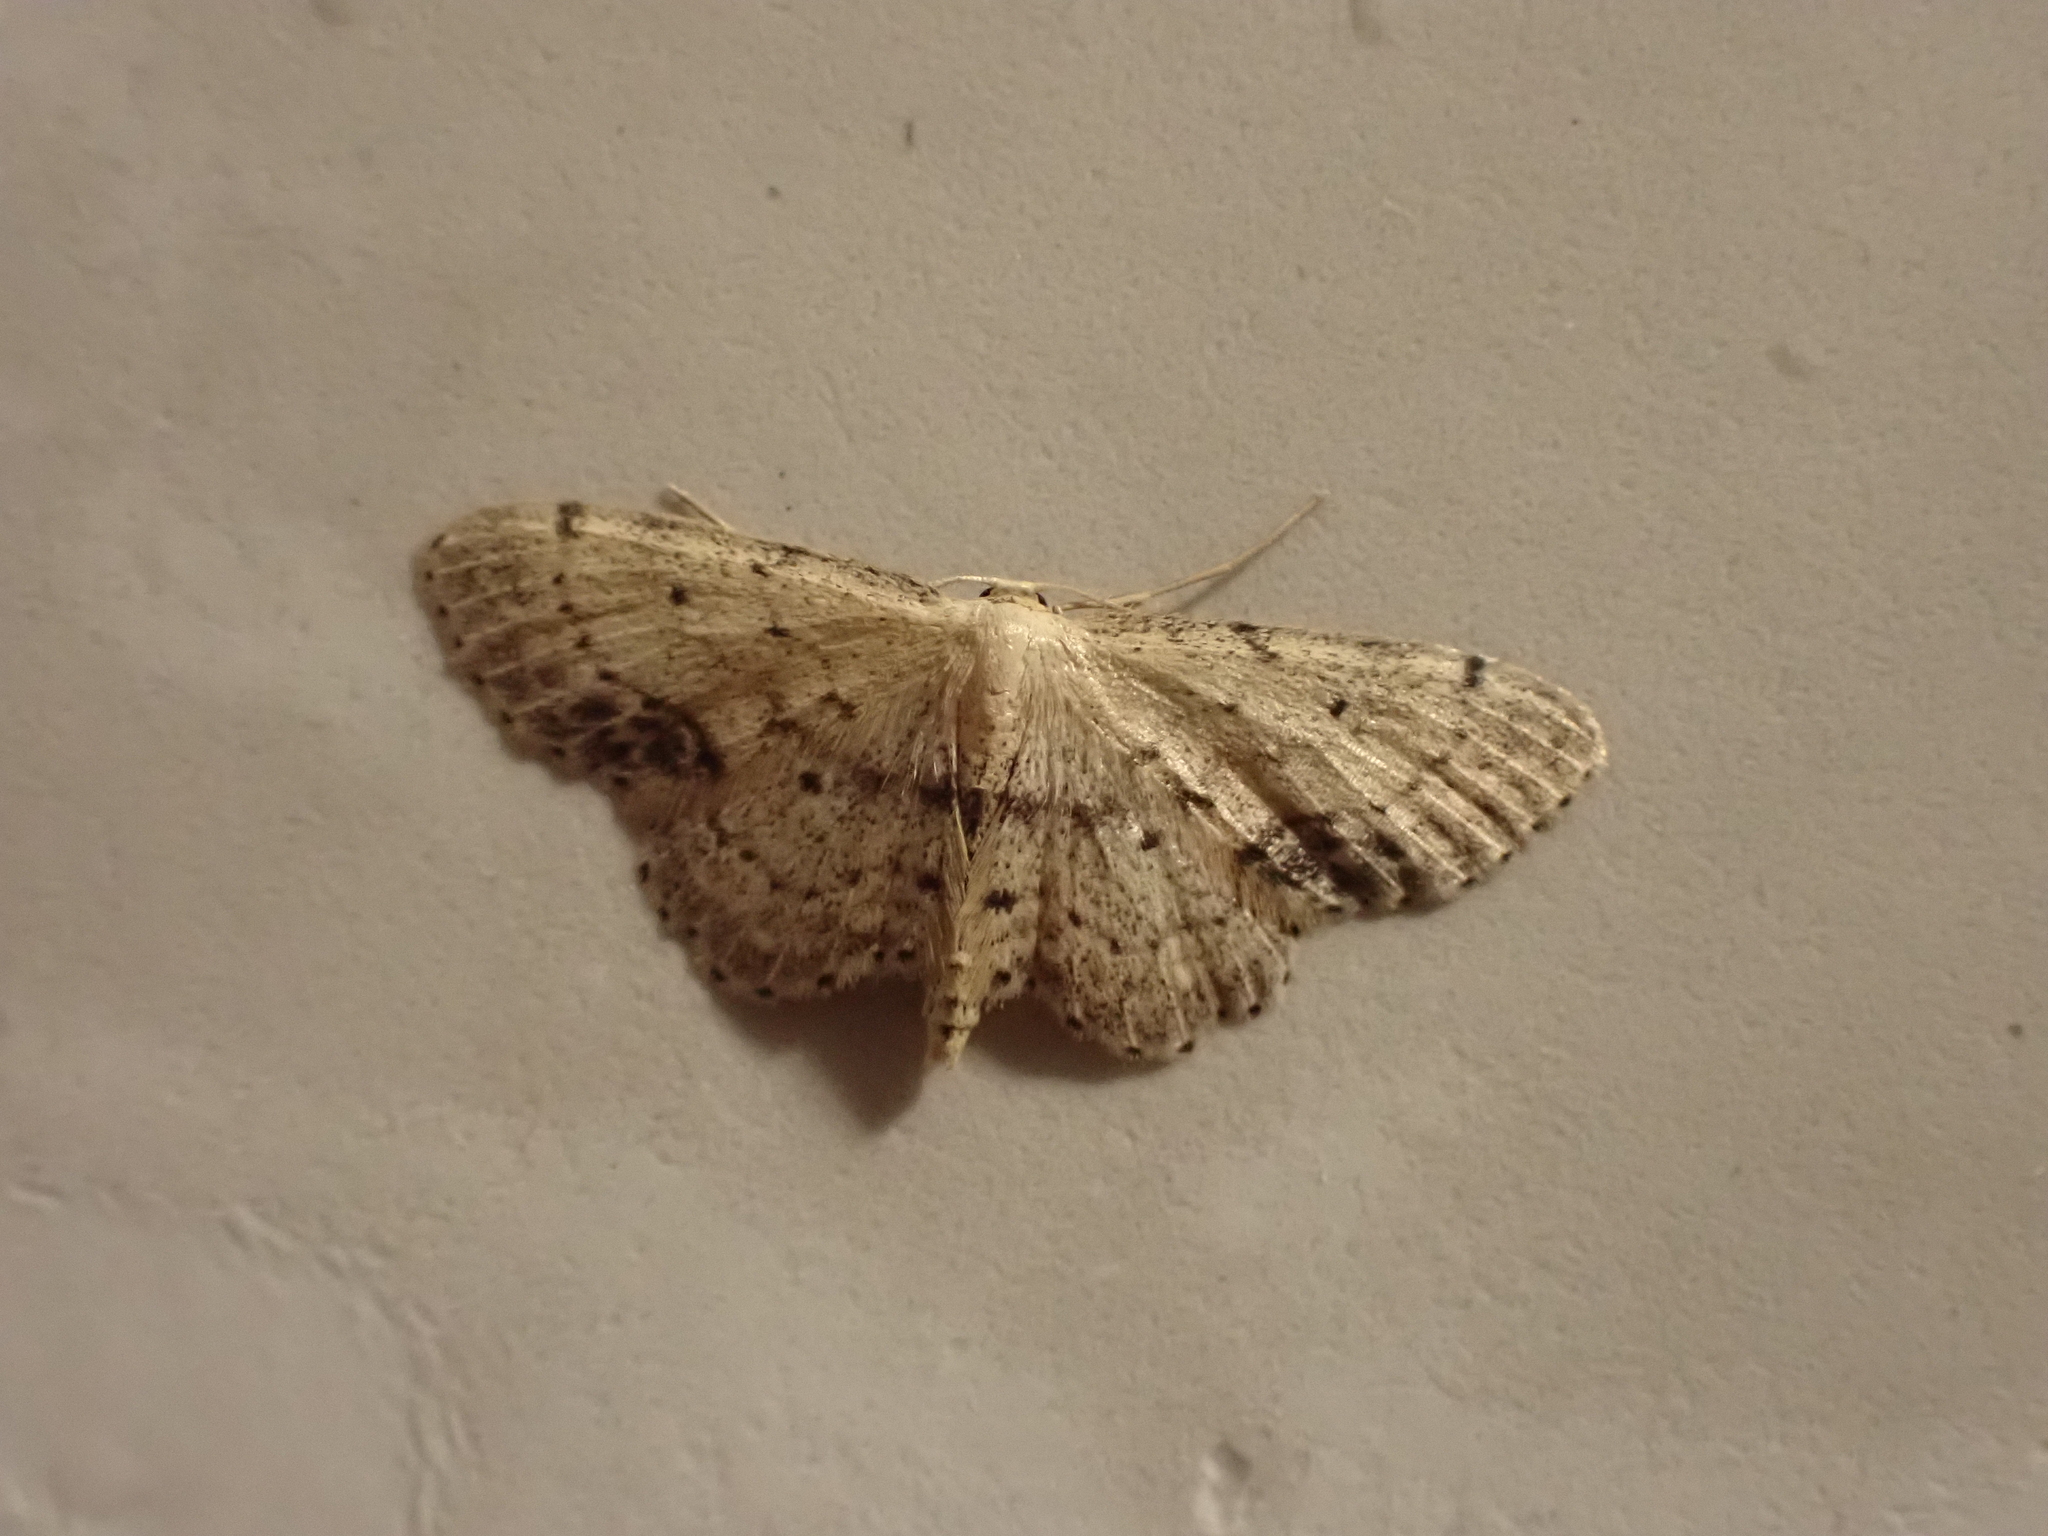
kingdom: Animalia
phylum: Arthropoda
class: Insecta
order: Lepidoptera
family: Geometridae
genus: Idaea
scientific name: Idaea dimidiata
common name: Single-dotted wave
